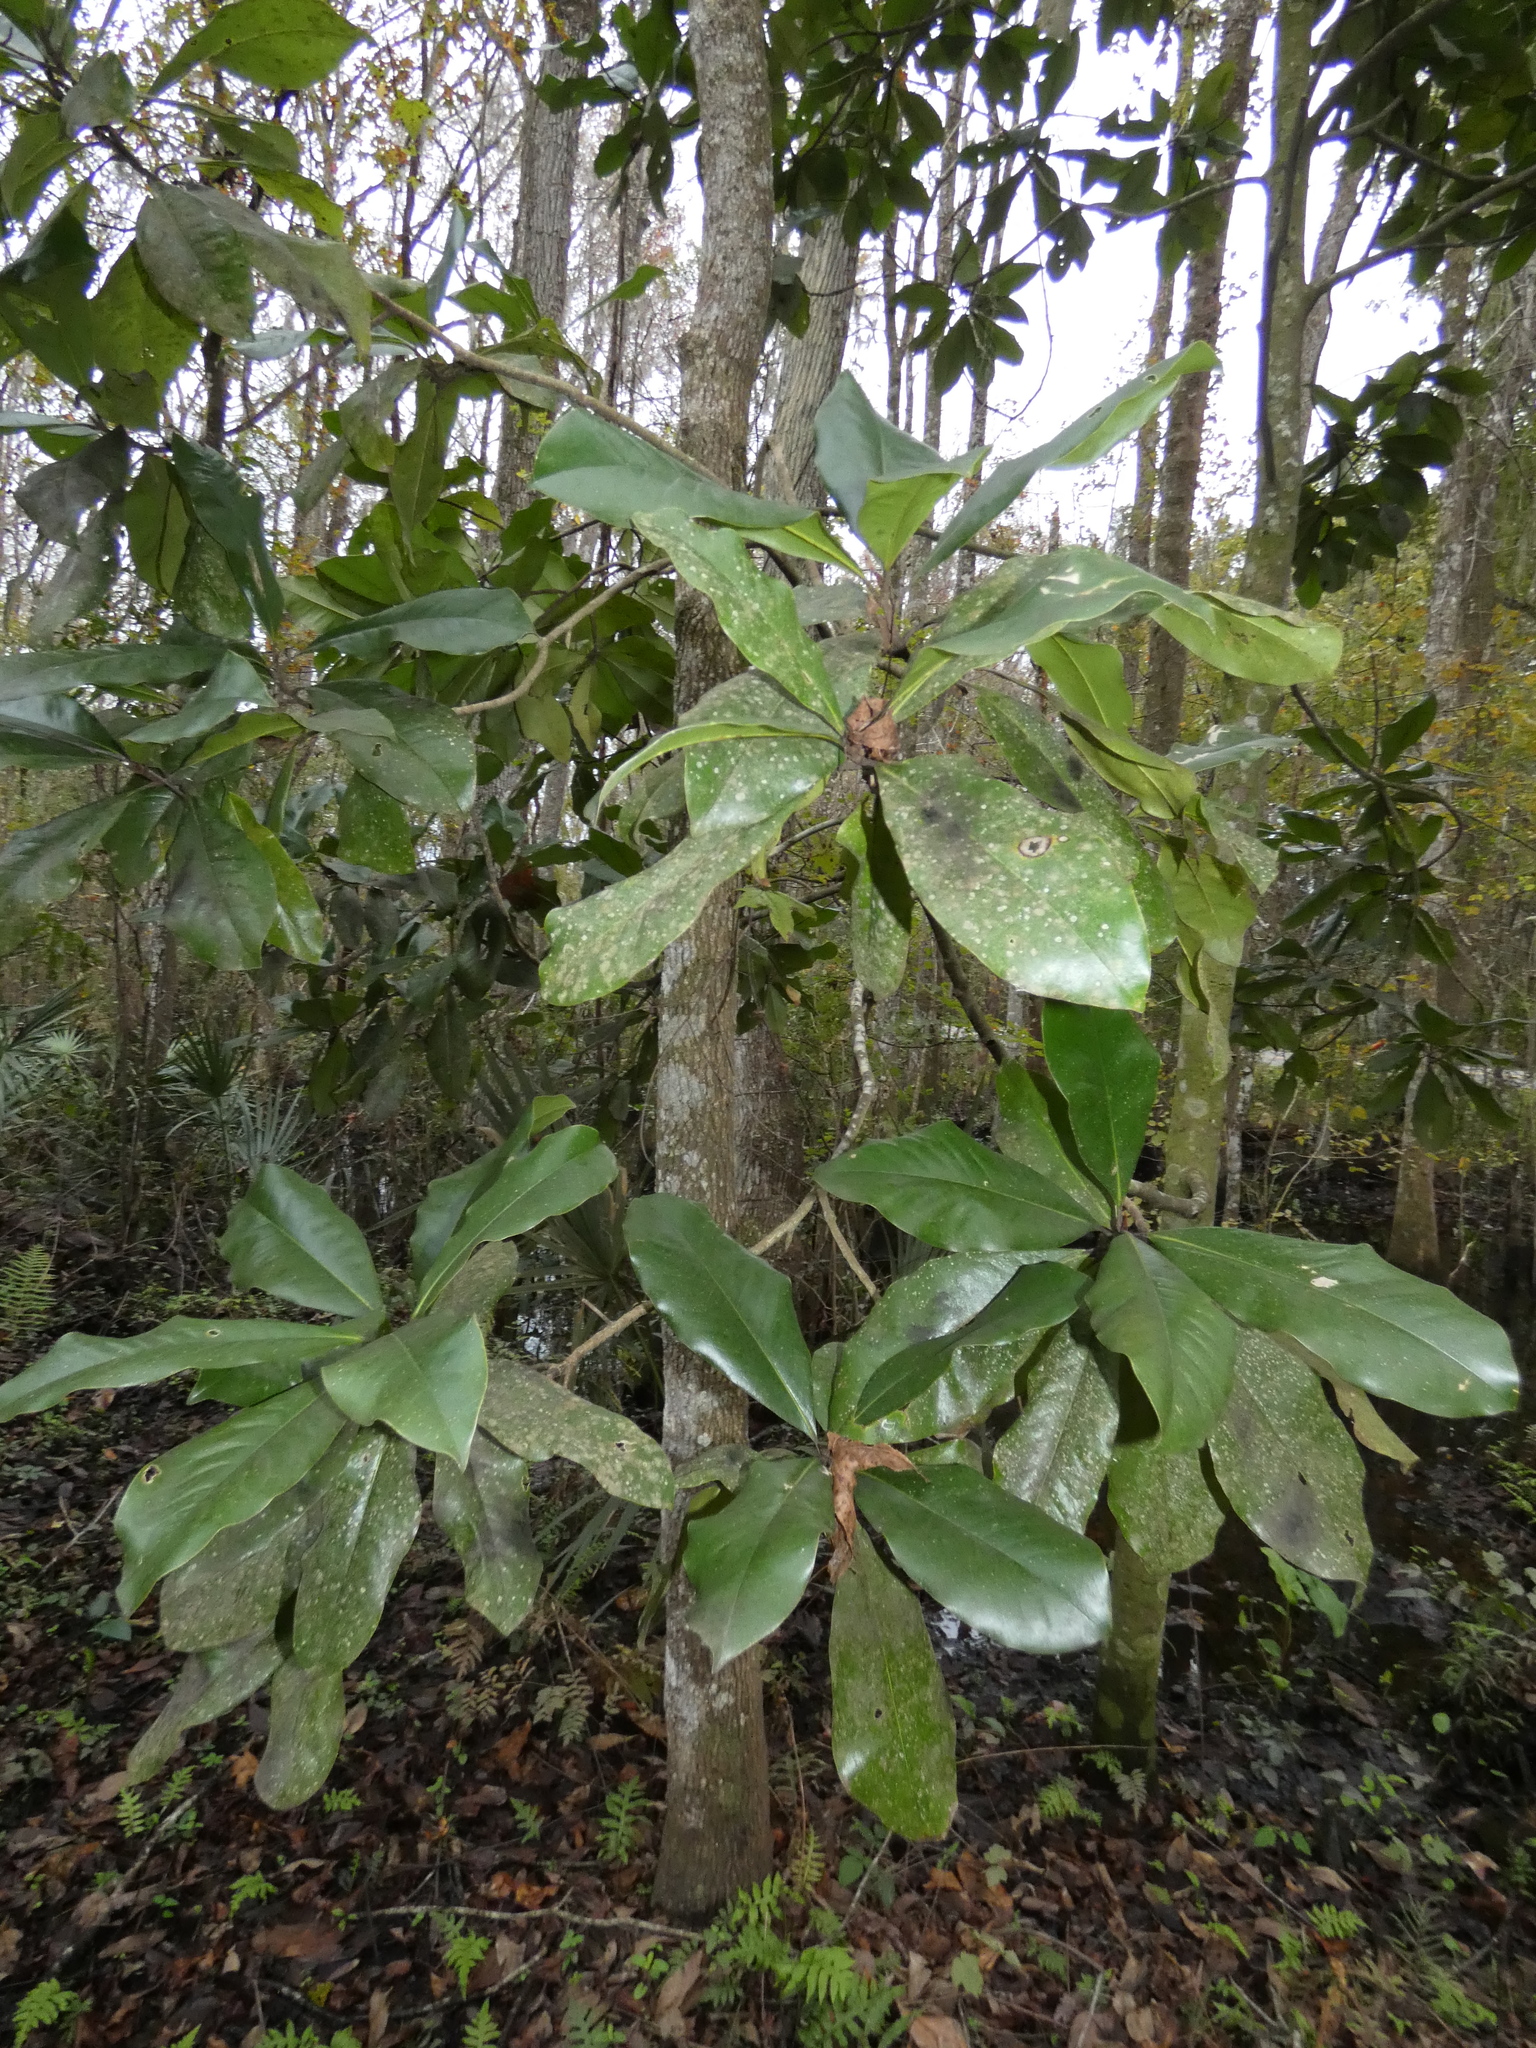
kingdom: Plantae
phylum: Tracheophyta
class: Magnoliopsida
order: Magnoliales
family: Magnoliaceae
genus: Magnolia
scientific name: Magnolia grandiflora
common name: Southern magnolia
